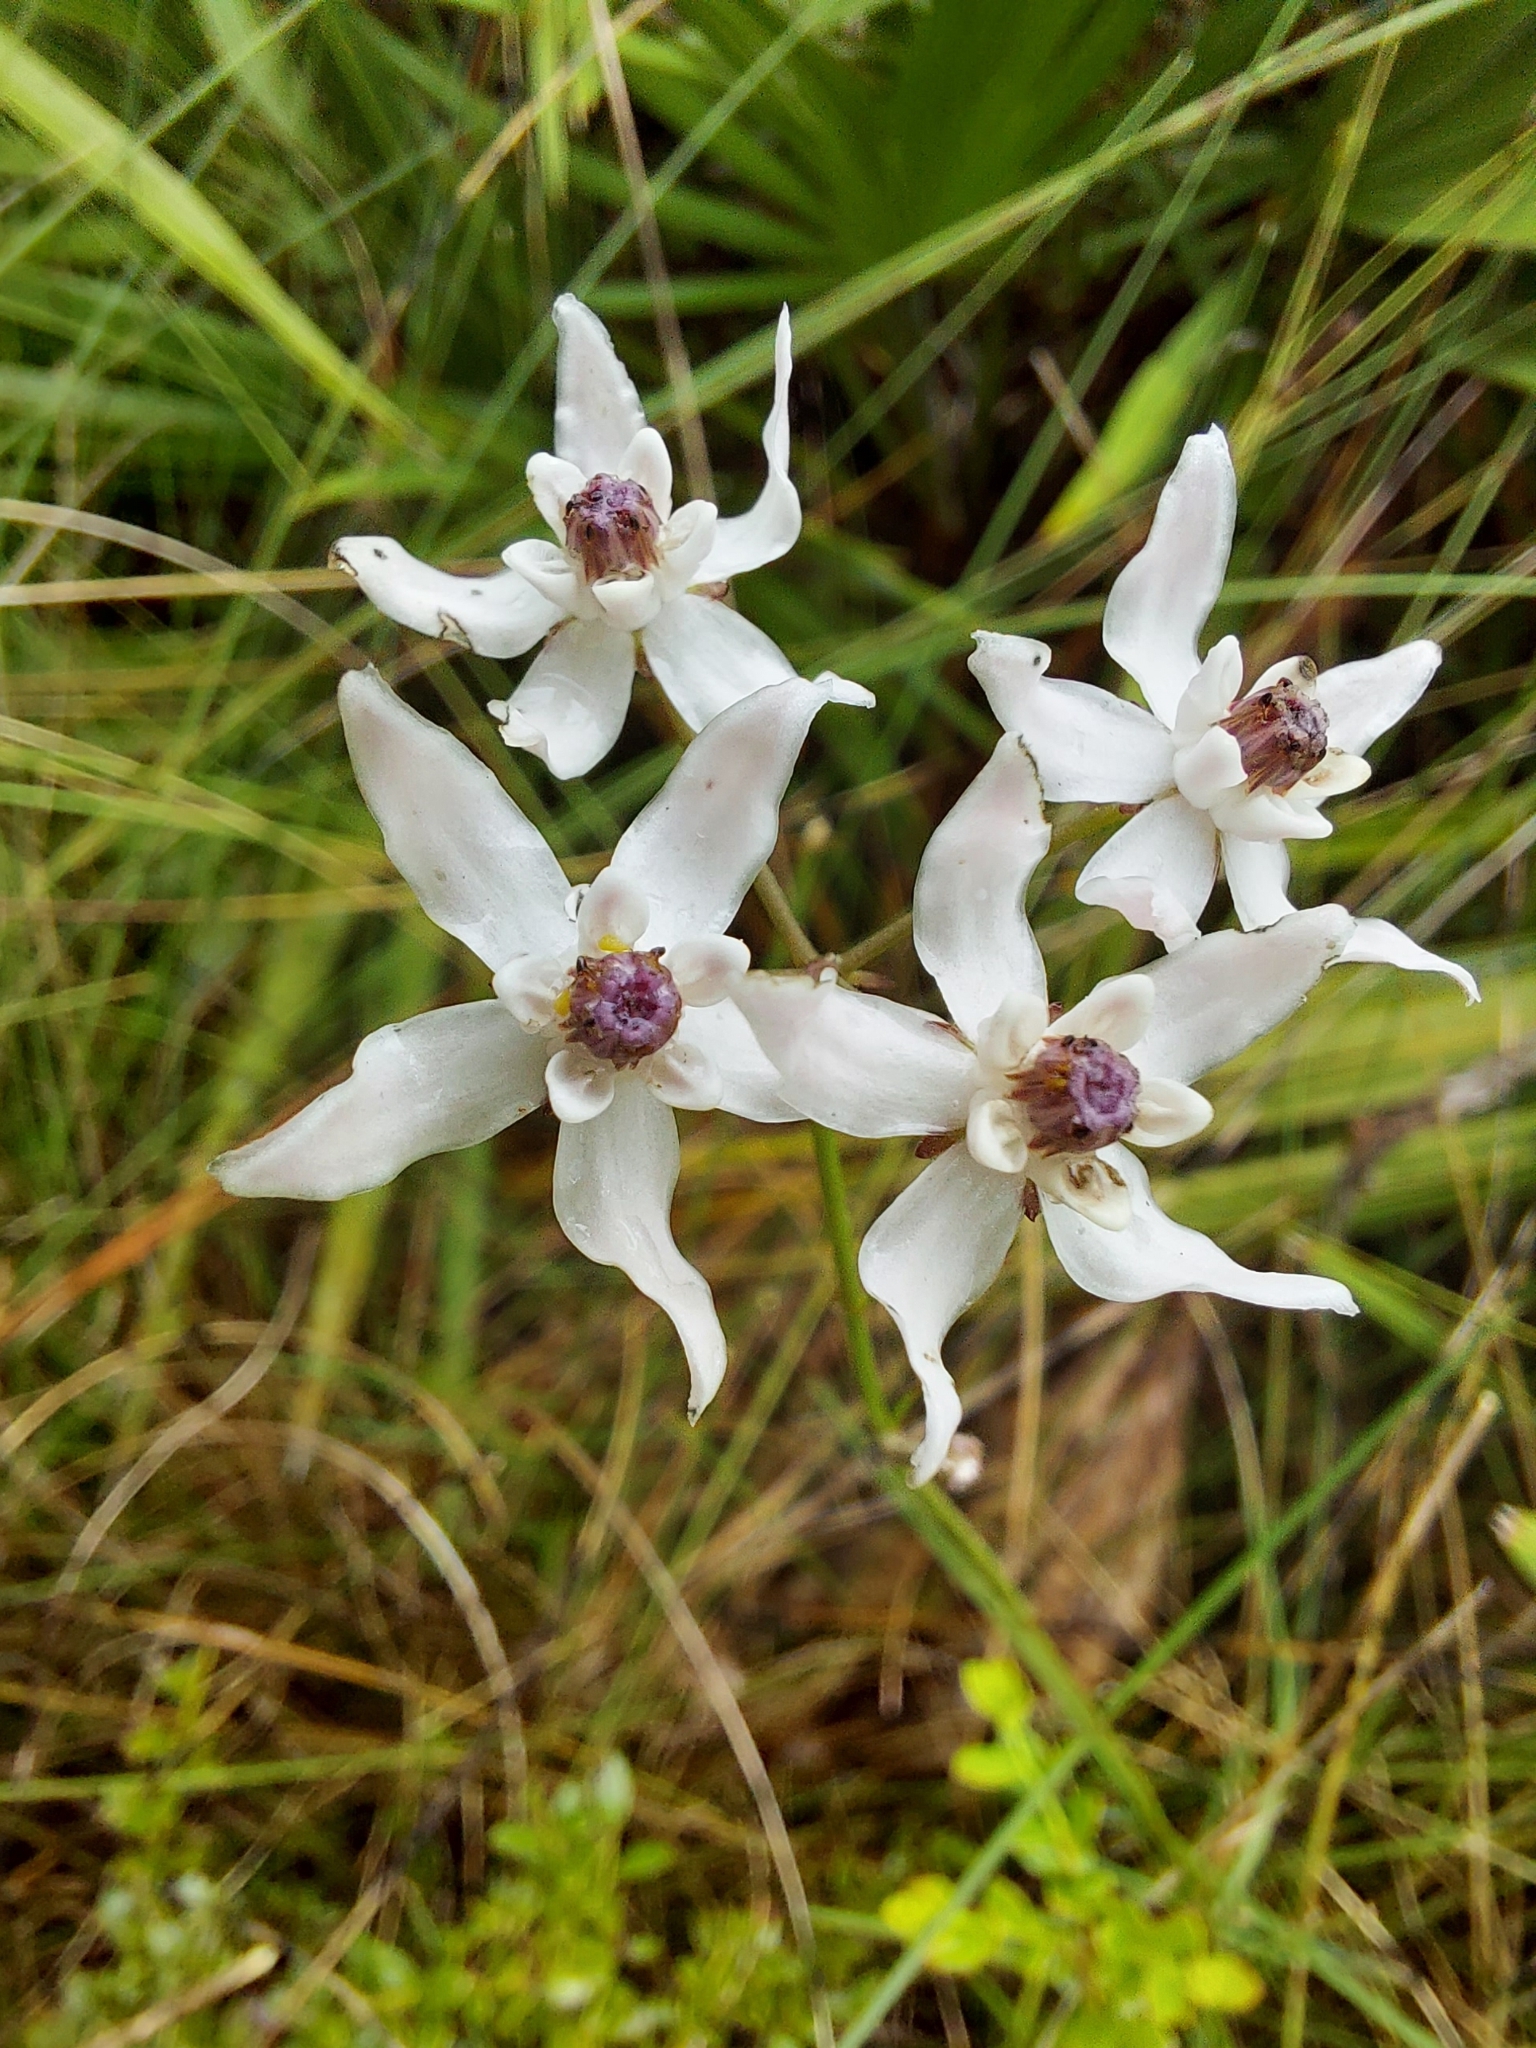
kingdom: Plantae
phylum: Tracheophyta
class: Magnoliopsida
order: Gentianales
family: Apocynaceae
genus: Asclepias
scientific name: Asclepias feayi
